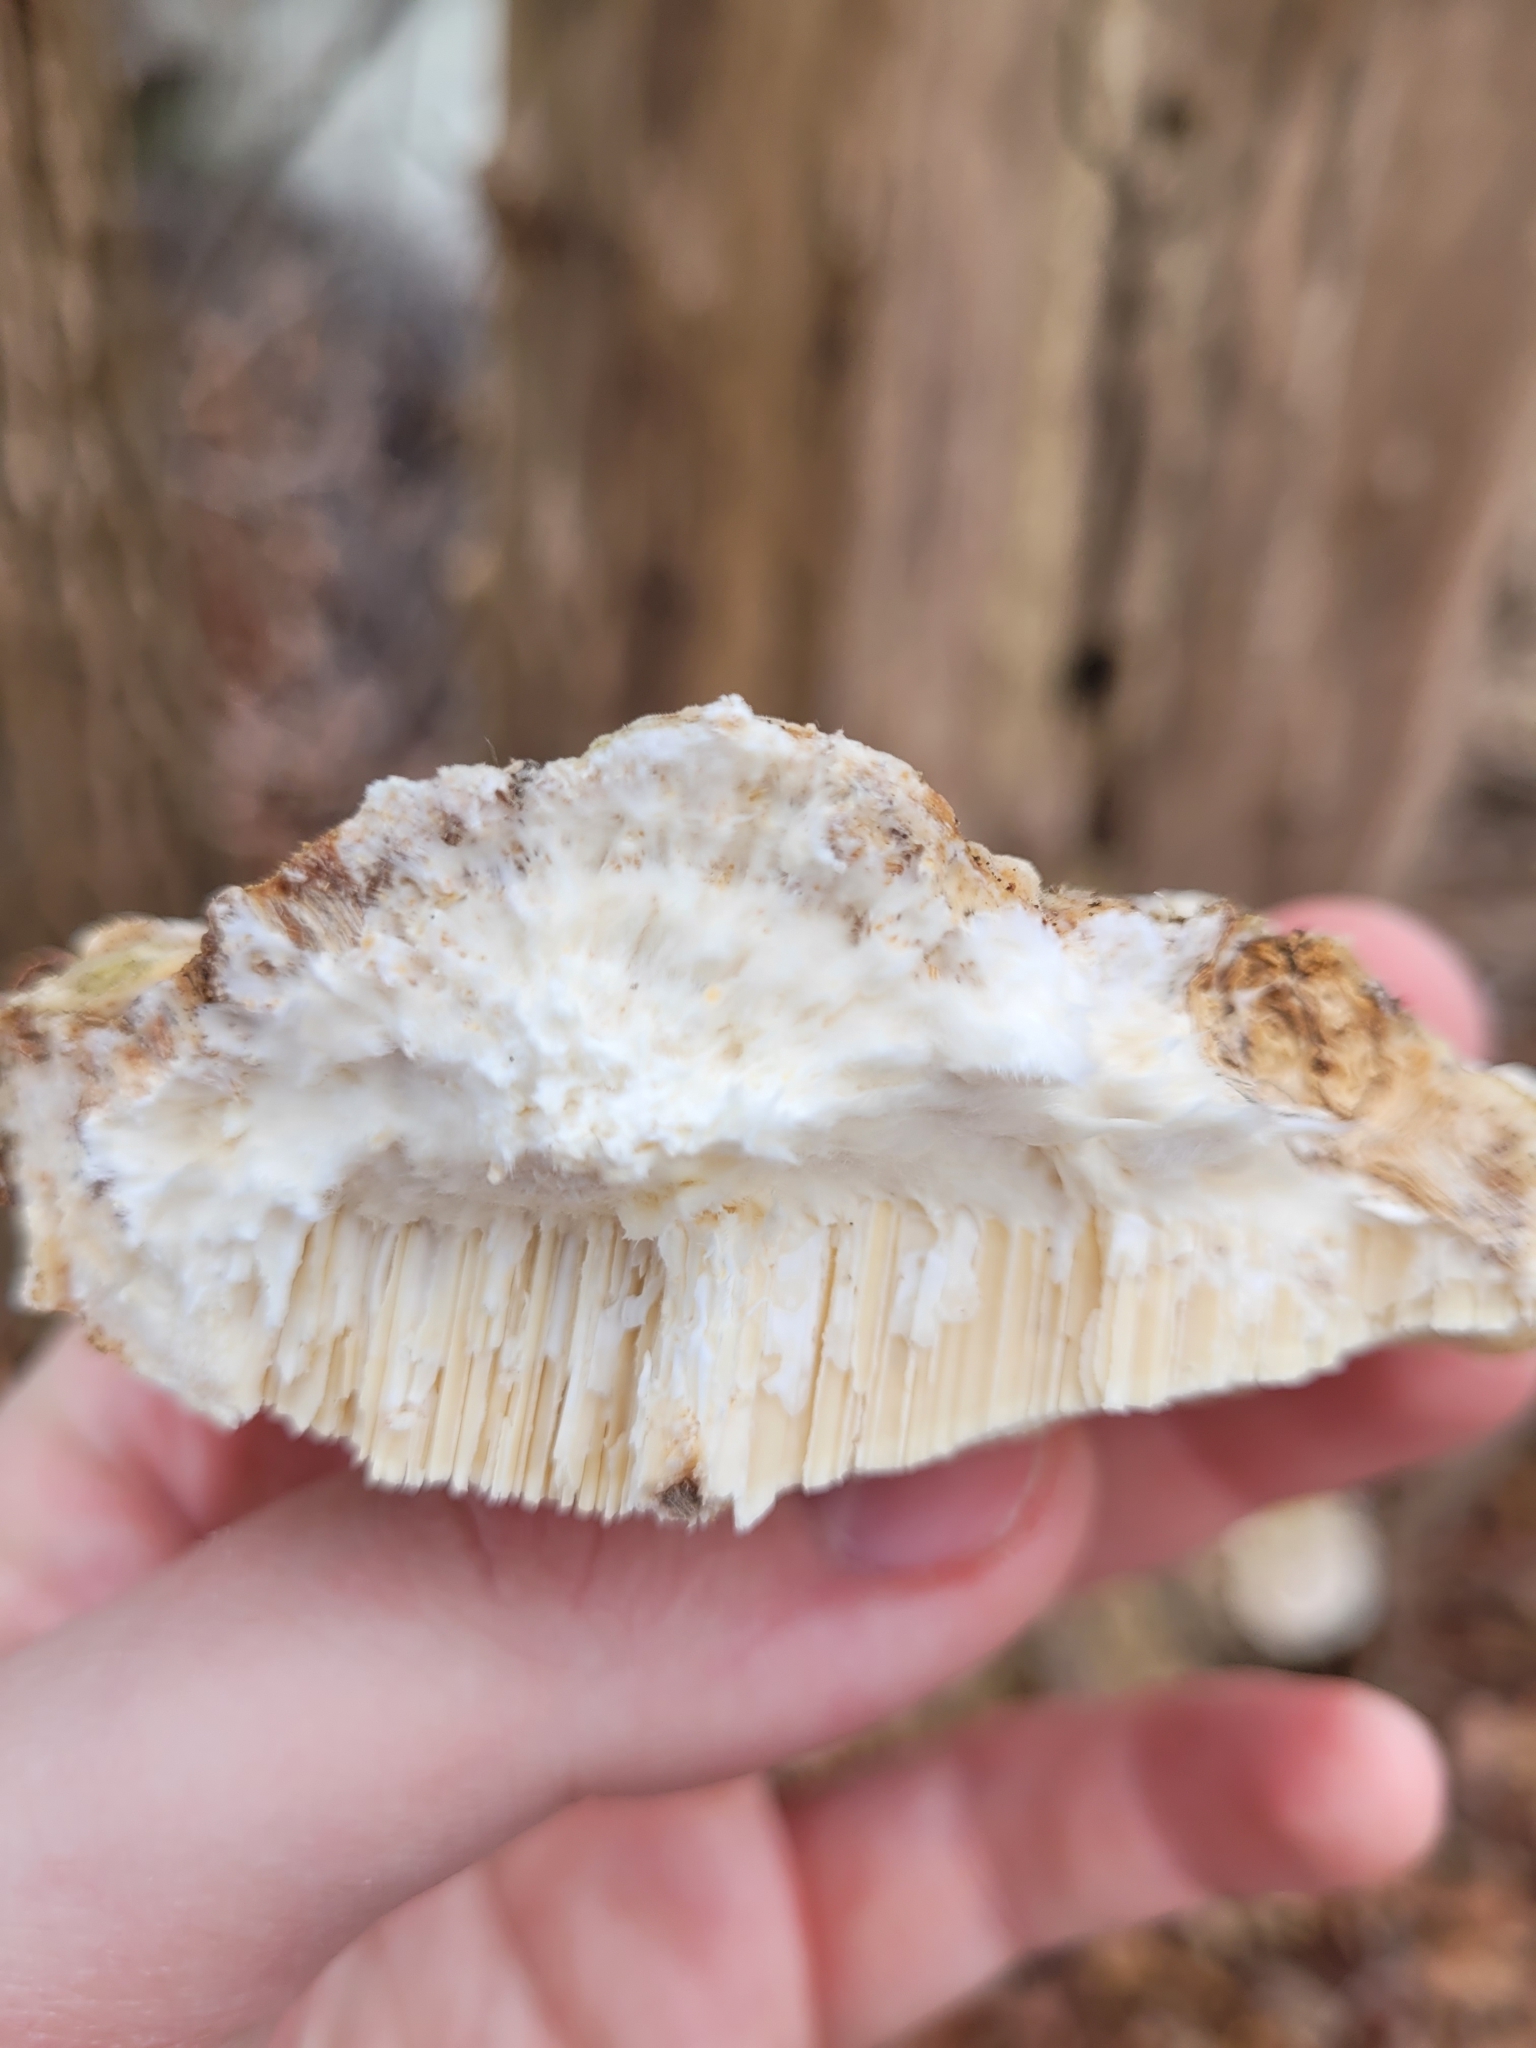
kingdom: Fungi
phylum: Basidiomycota
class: Agaricomycetes
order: Polyporales
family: Polyporaceae
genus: Trametes
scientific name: Trametes gibbosa
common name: Lumpy bracket
